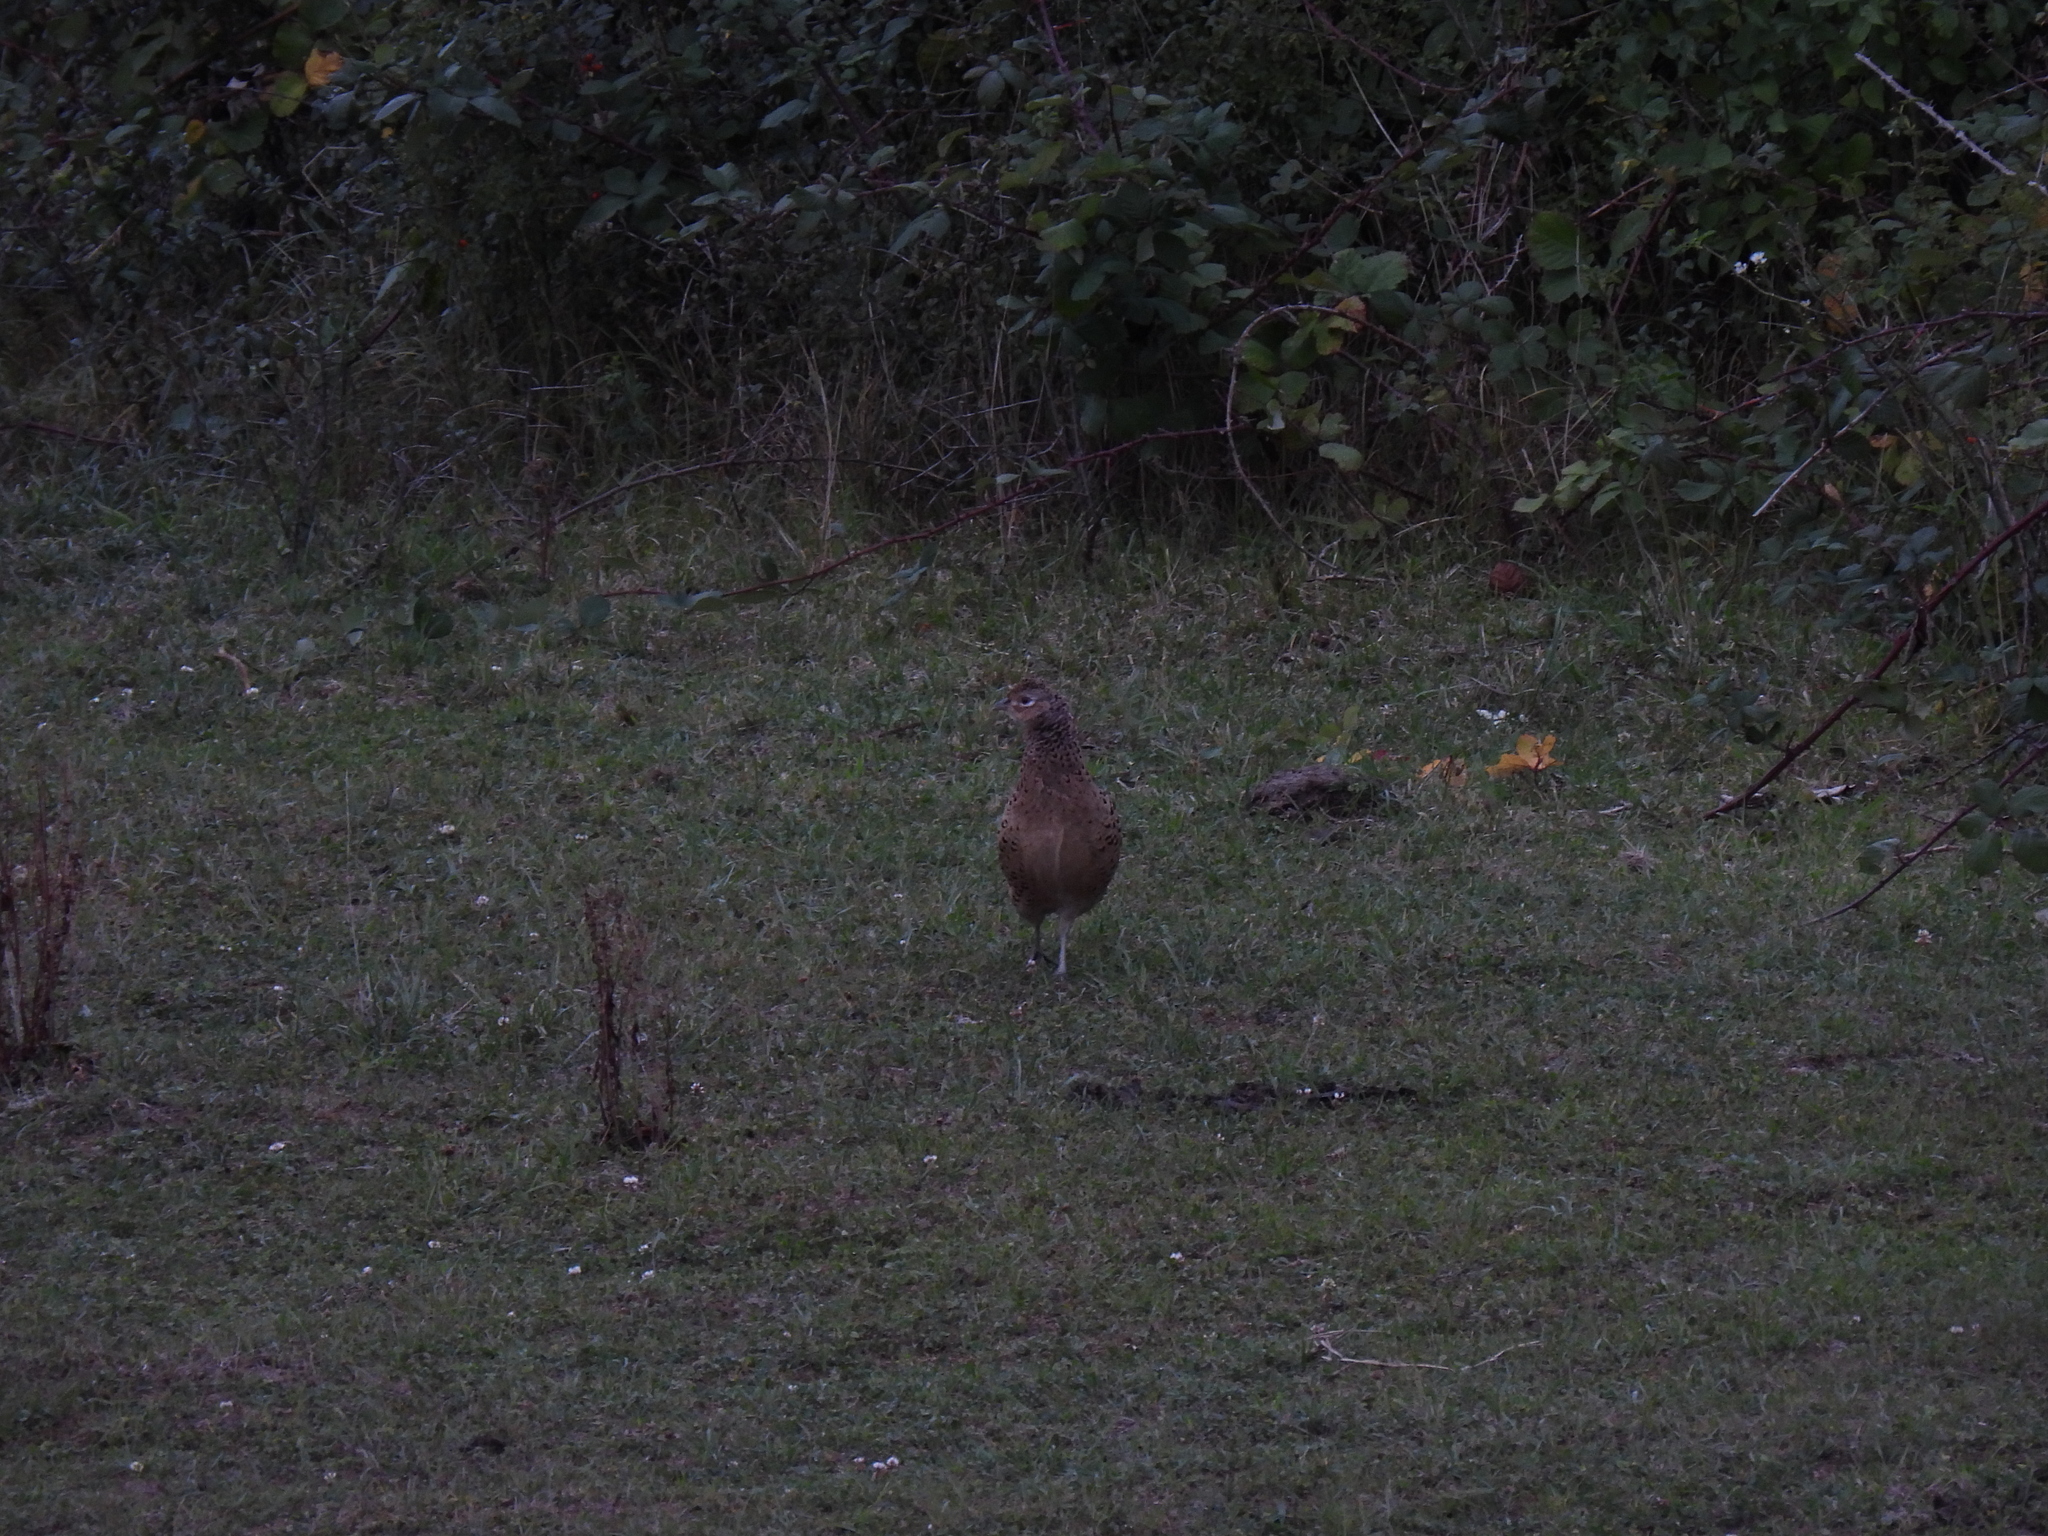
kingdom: Animalia
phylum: Chordata
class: Aves
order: Galliformes
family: Phasianidae
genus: Phasianus
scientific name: Phasianus colchicus
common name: Common pheasant
